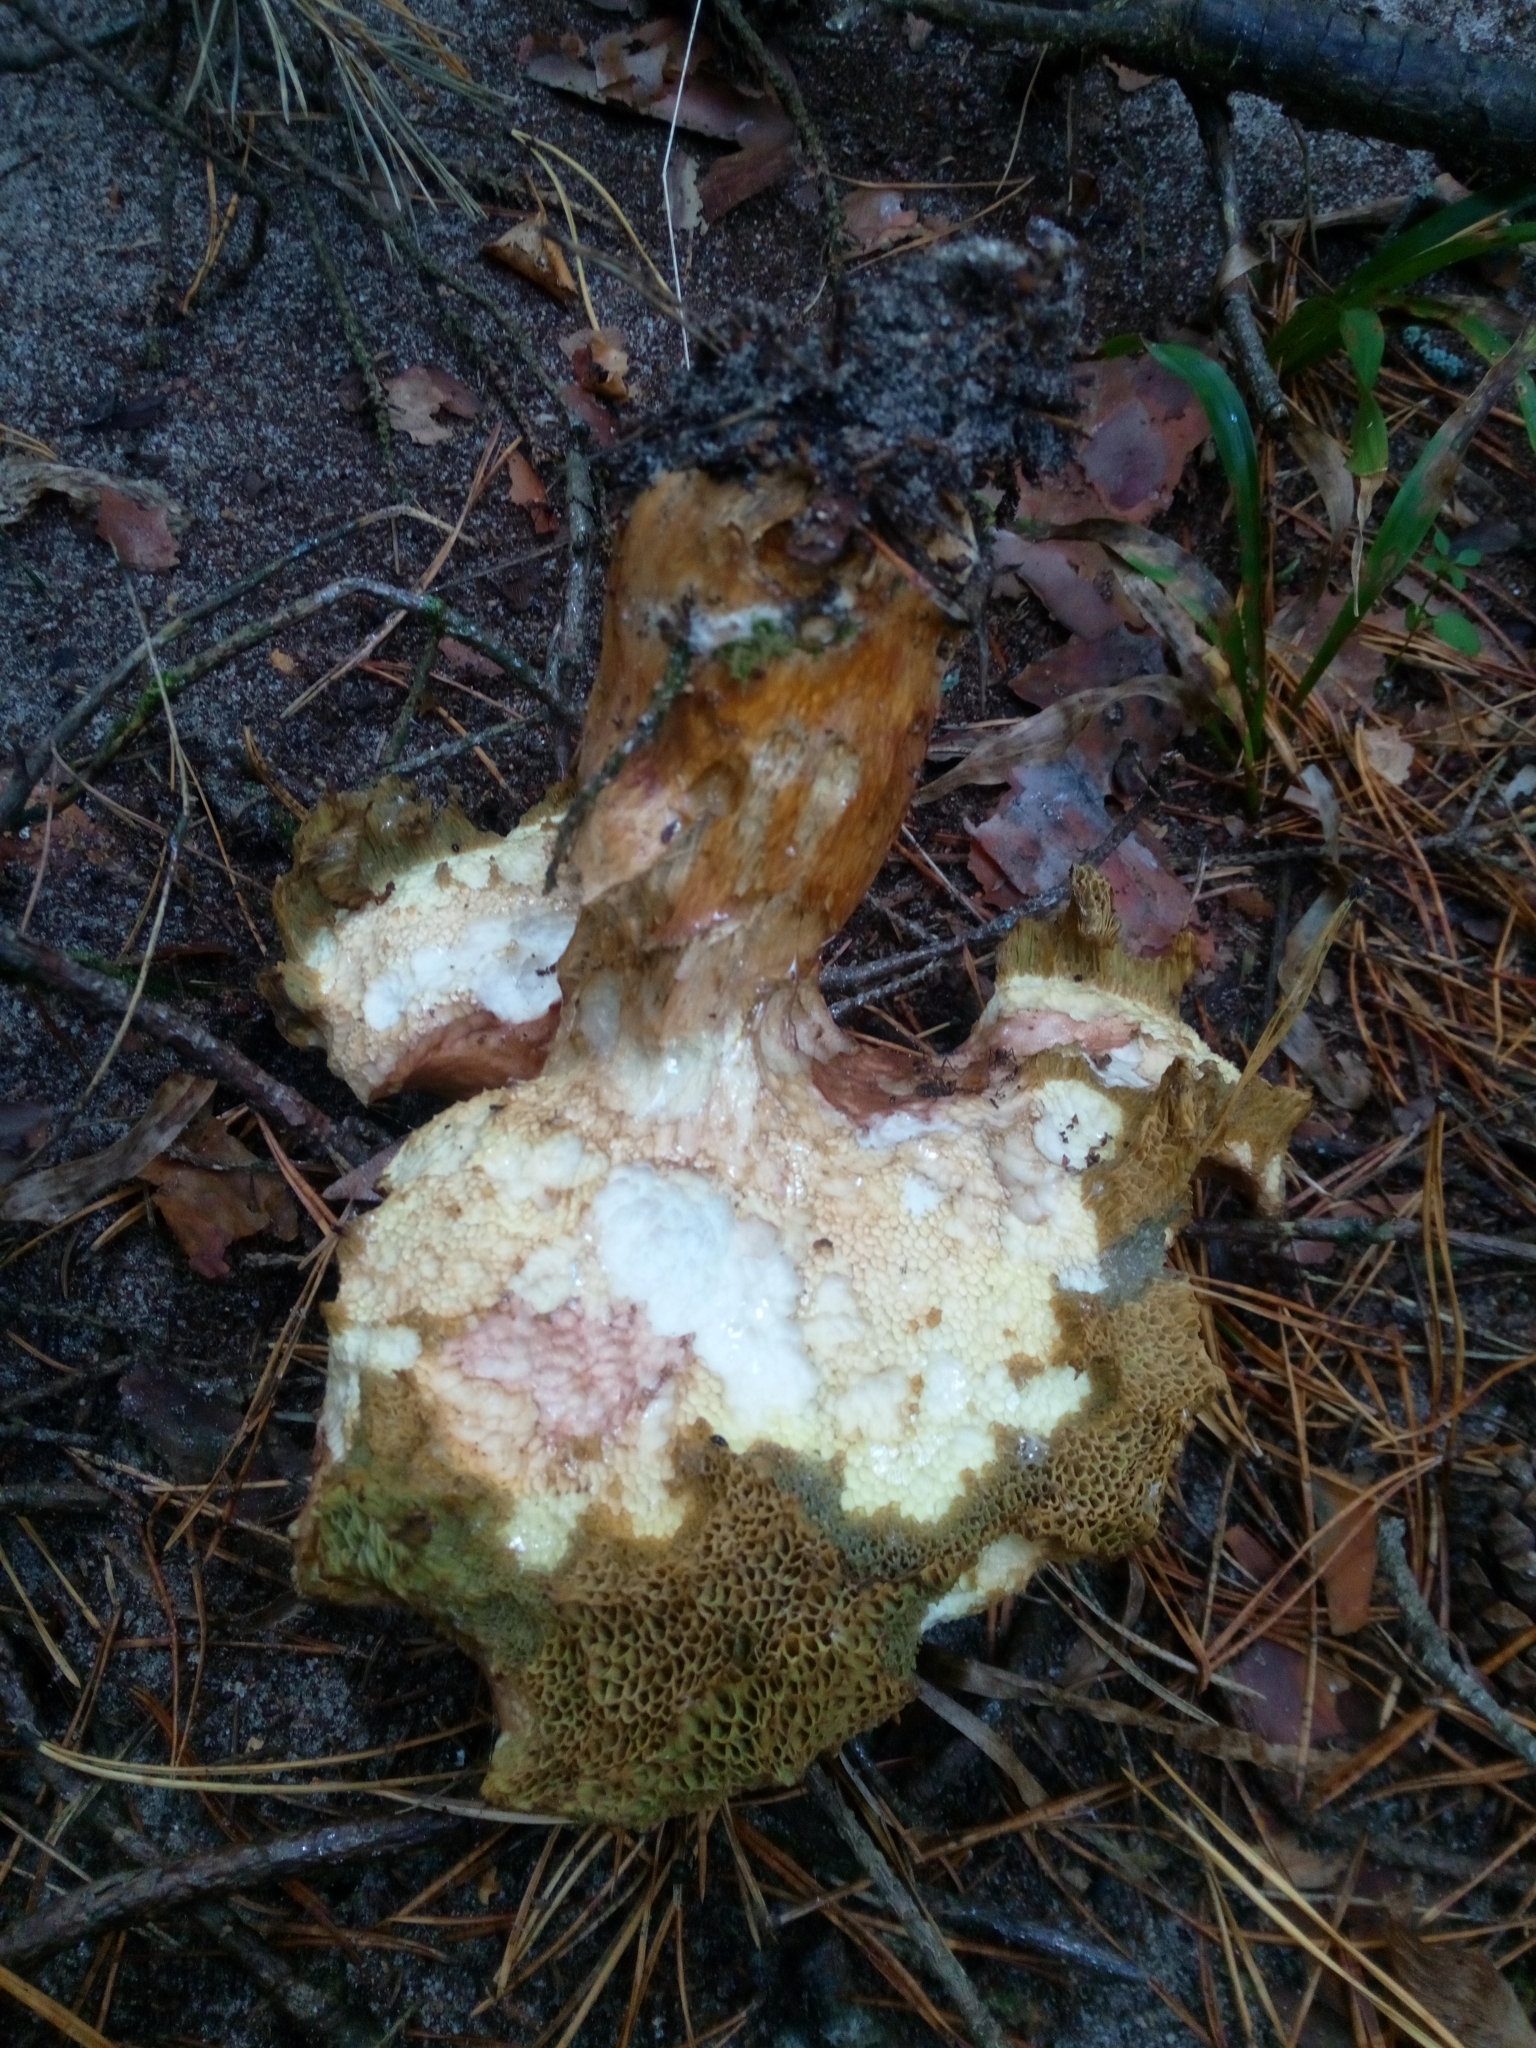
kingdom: Fungi
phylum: Basidiomycota
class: Agaricomycetes
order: Boletales
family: Boletaceae
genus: Imleria
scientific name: Imleria badia
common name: Bay bolete
